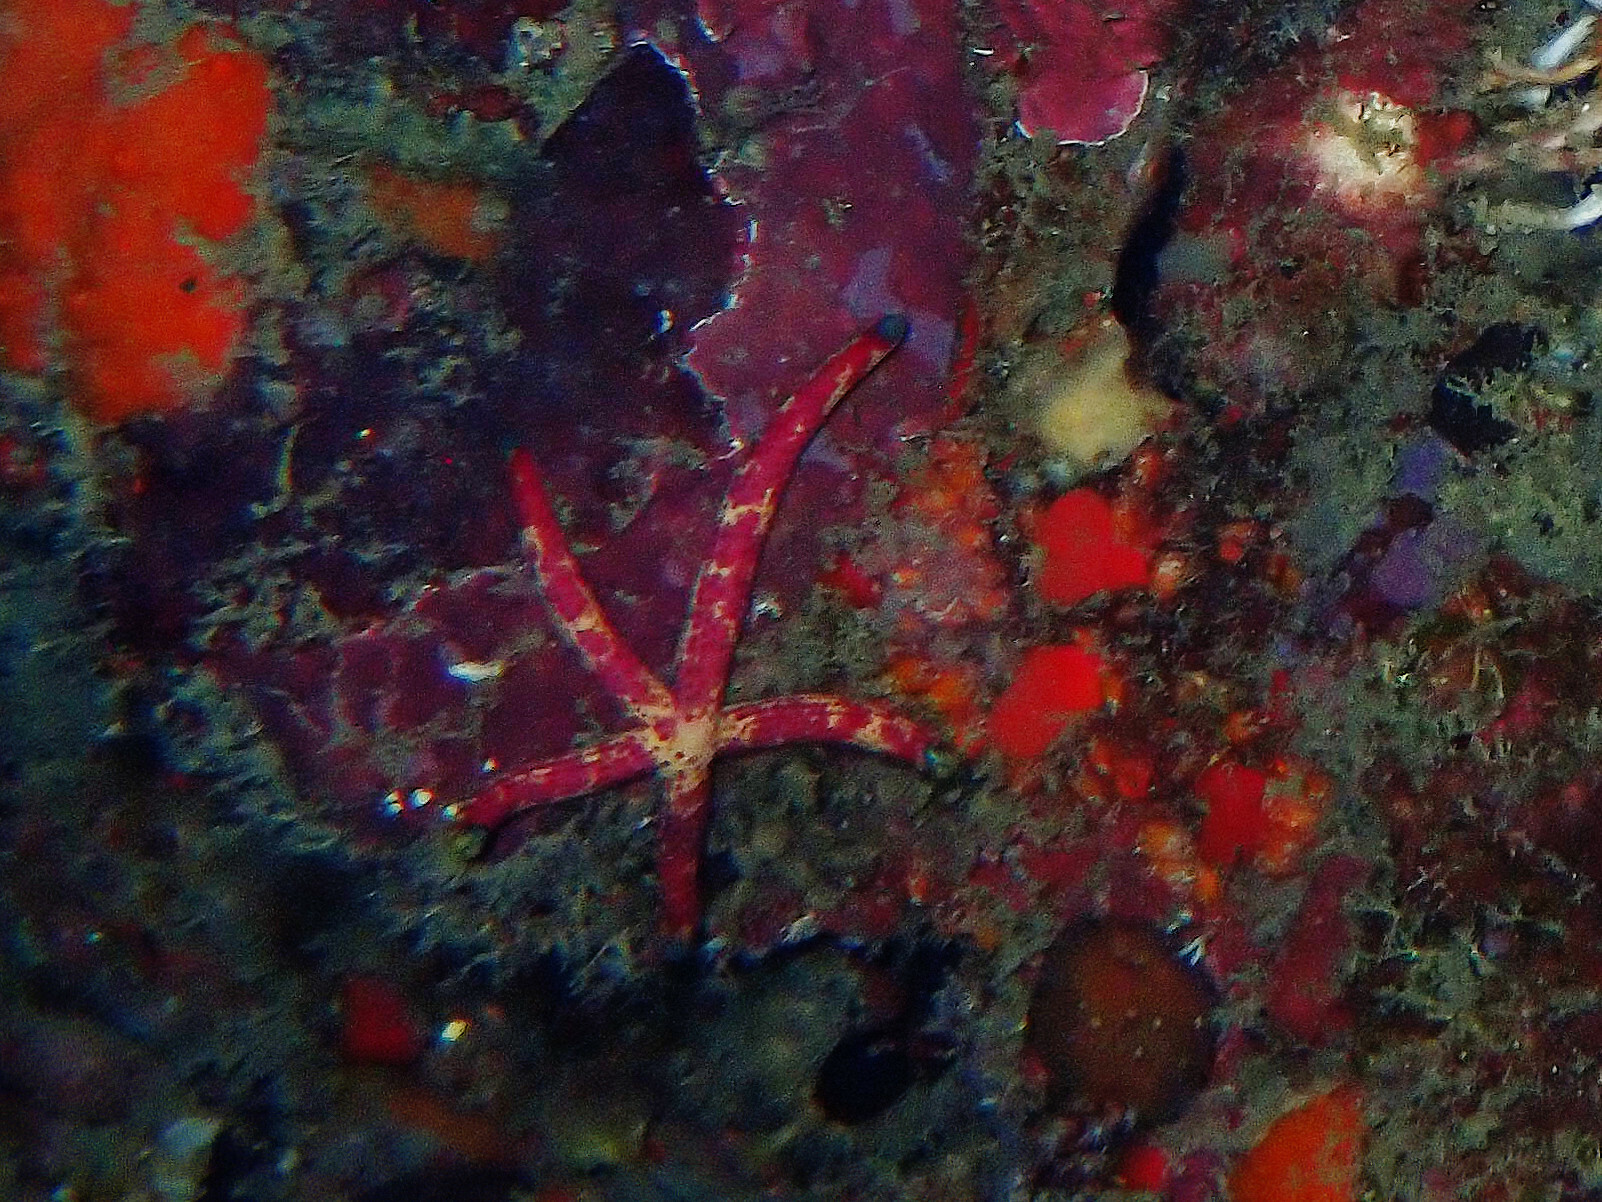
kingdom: Animalia
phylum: Echinodermata
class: Asteroidea
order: Valvatida
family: Ophidiasteridae
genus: Linckia
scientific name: Linckia multifora
